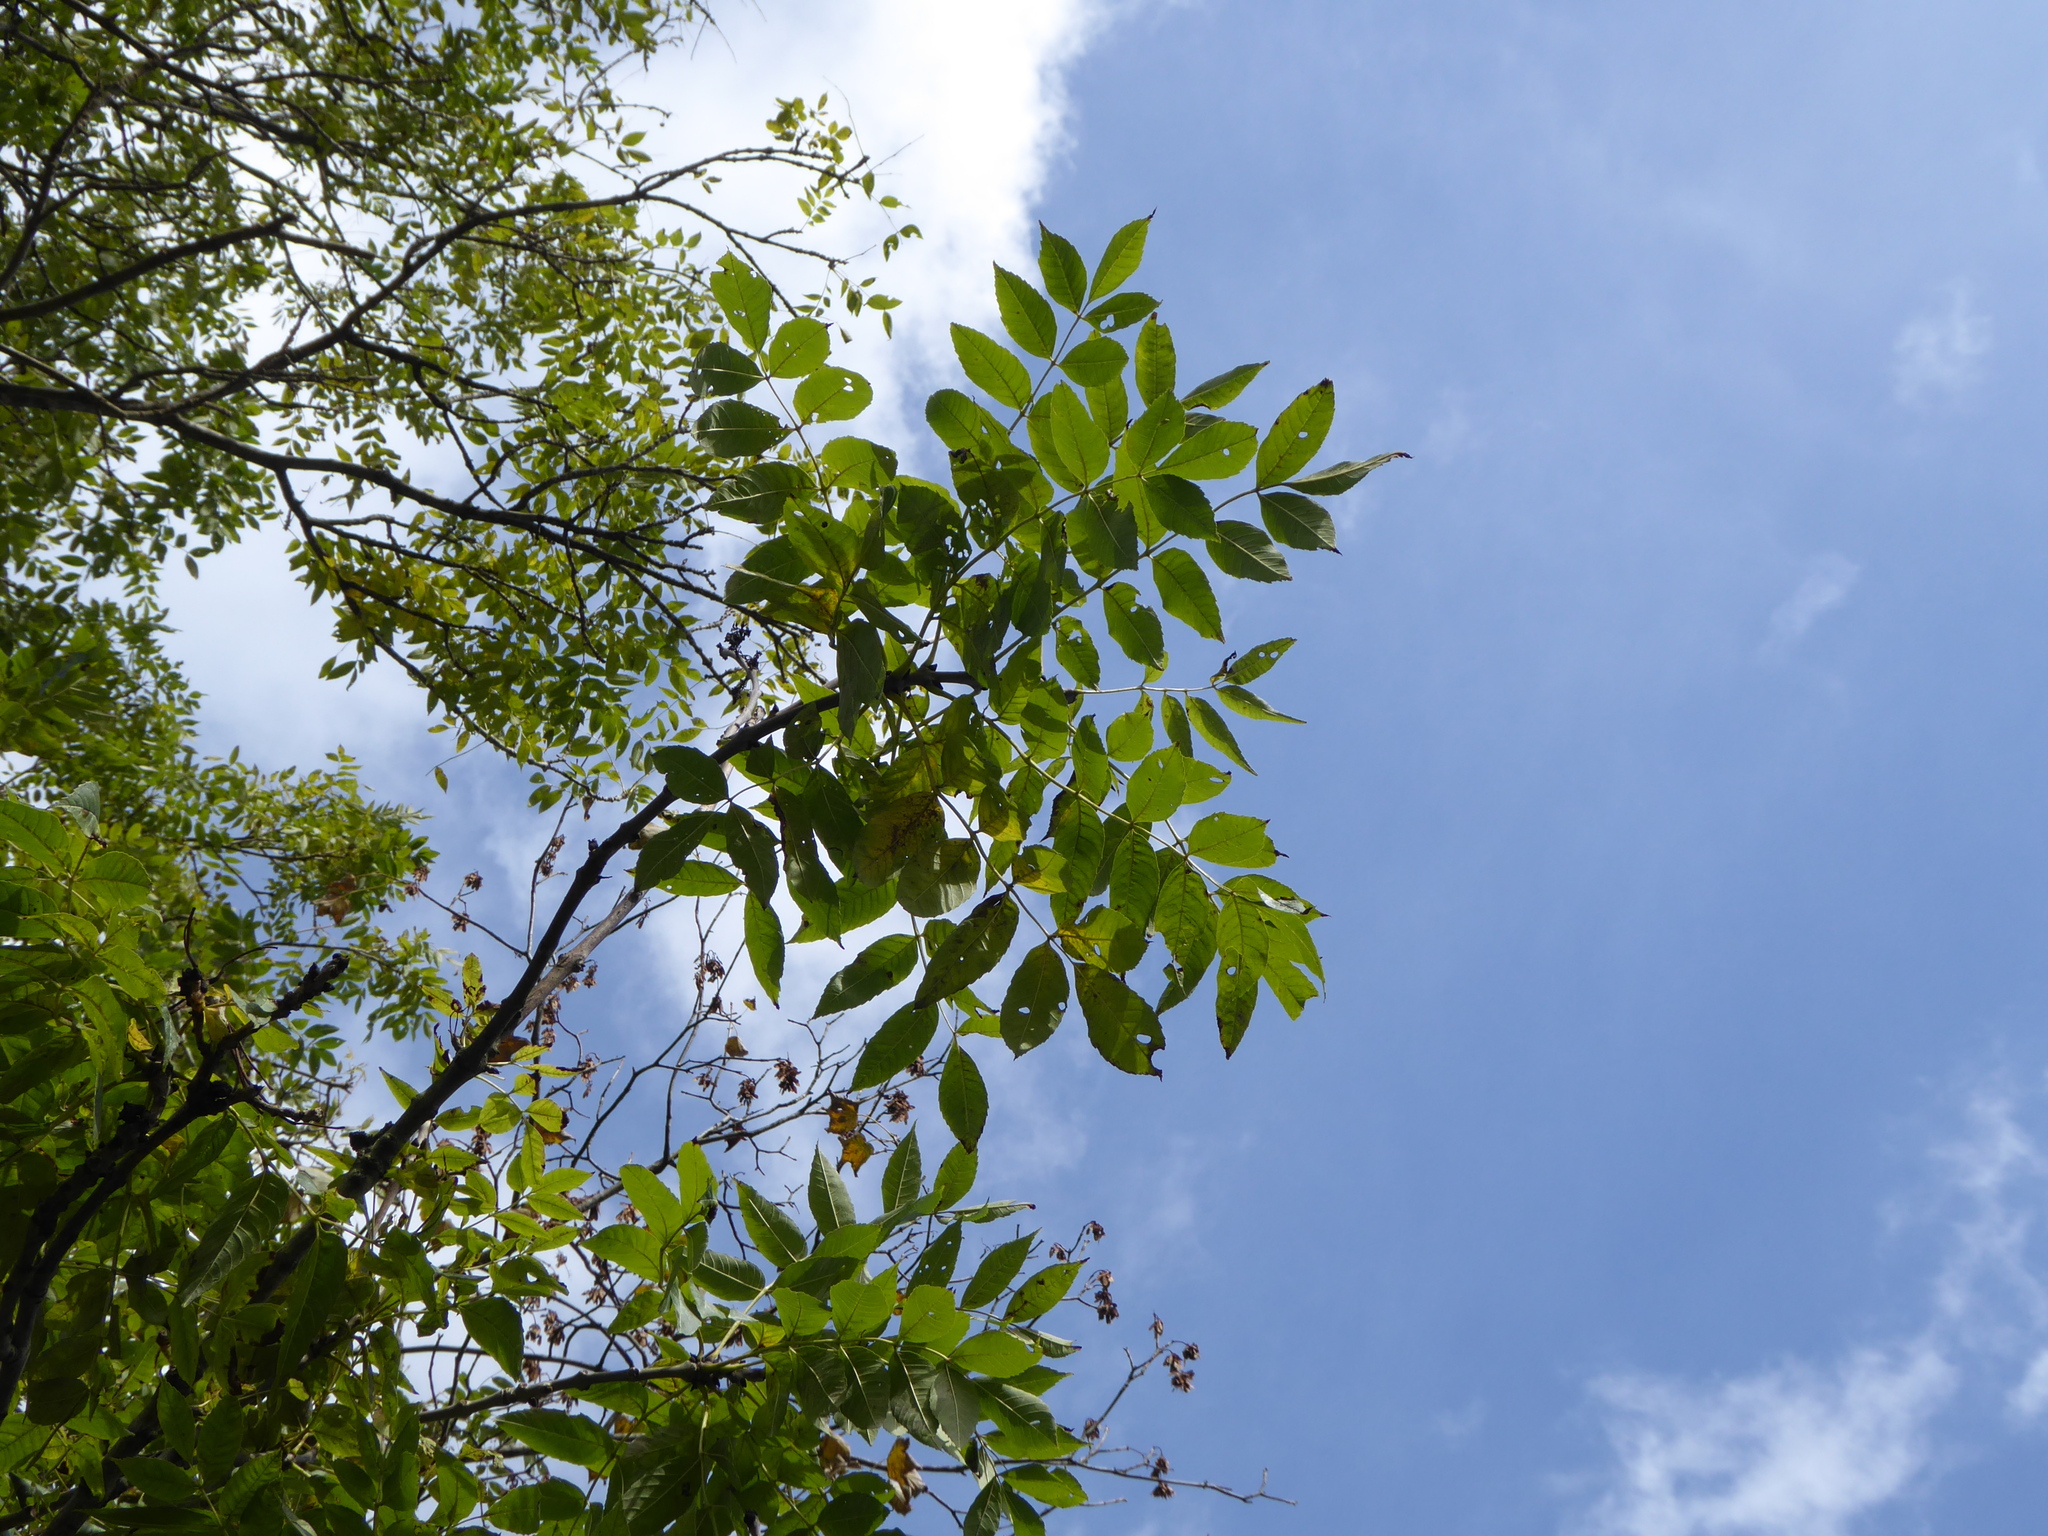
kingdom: Plantae
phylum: Tracheophyta
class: Magnoliopsida
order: Lamiales
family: Oleaceae
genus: Fraxinus
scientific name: Fraxinus excelsior
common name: European ash
